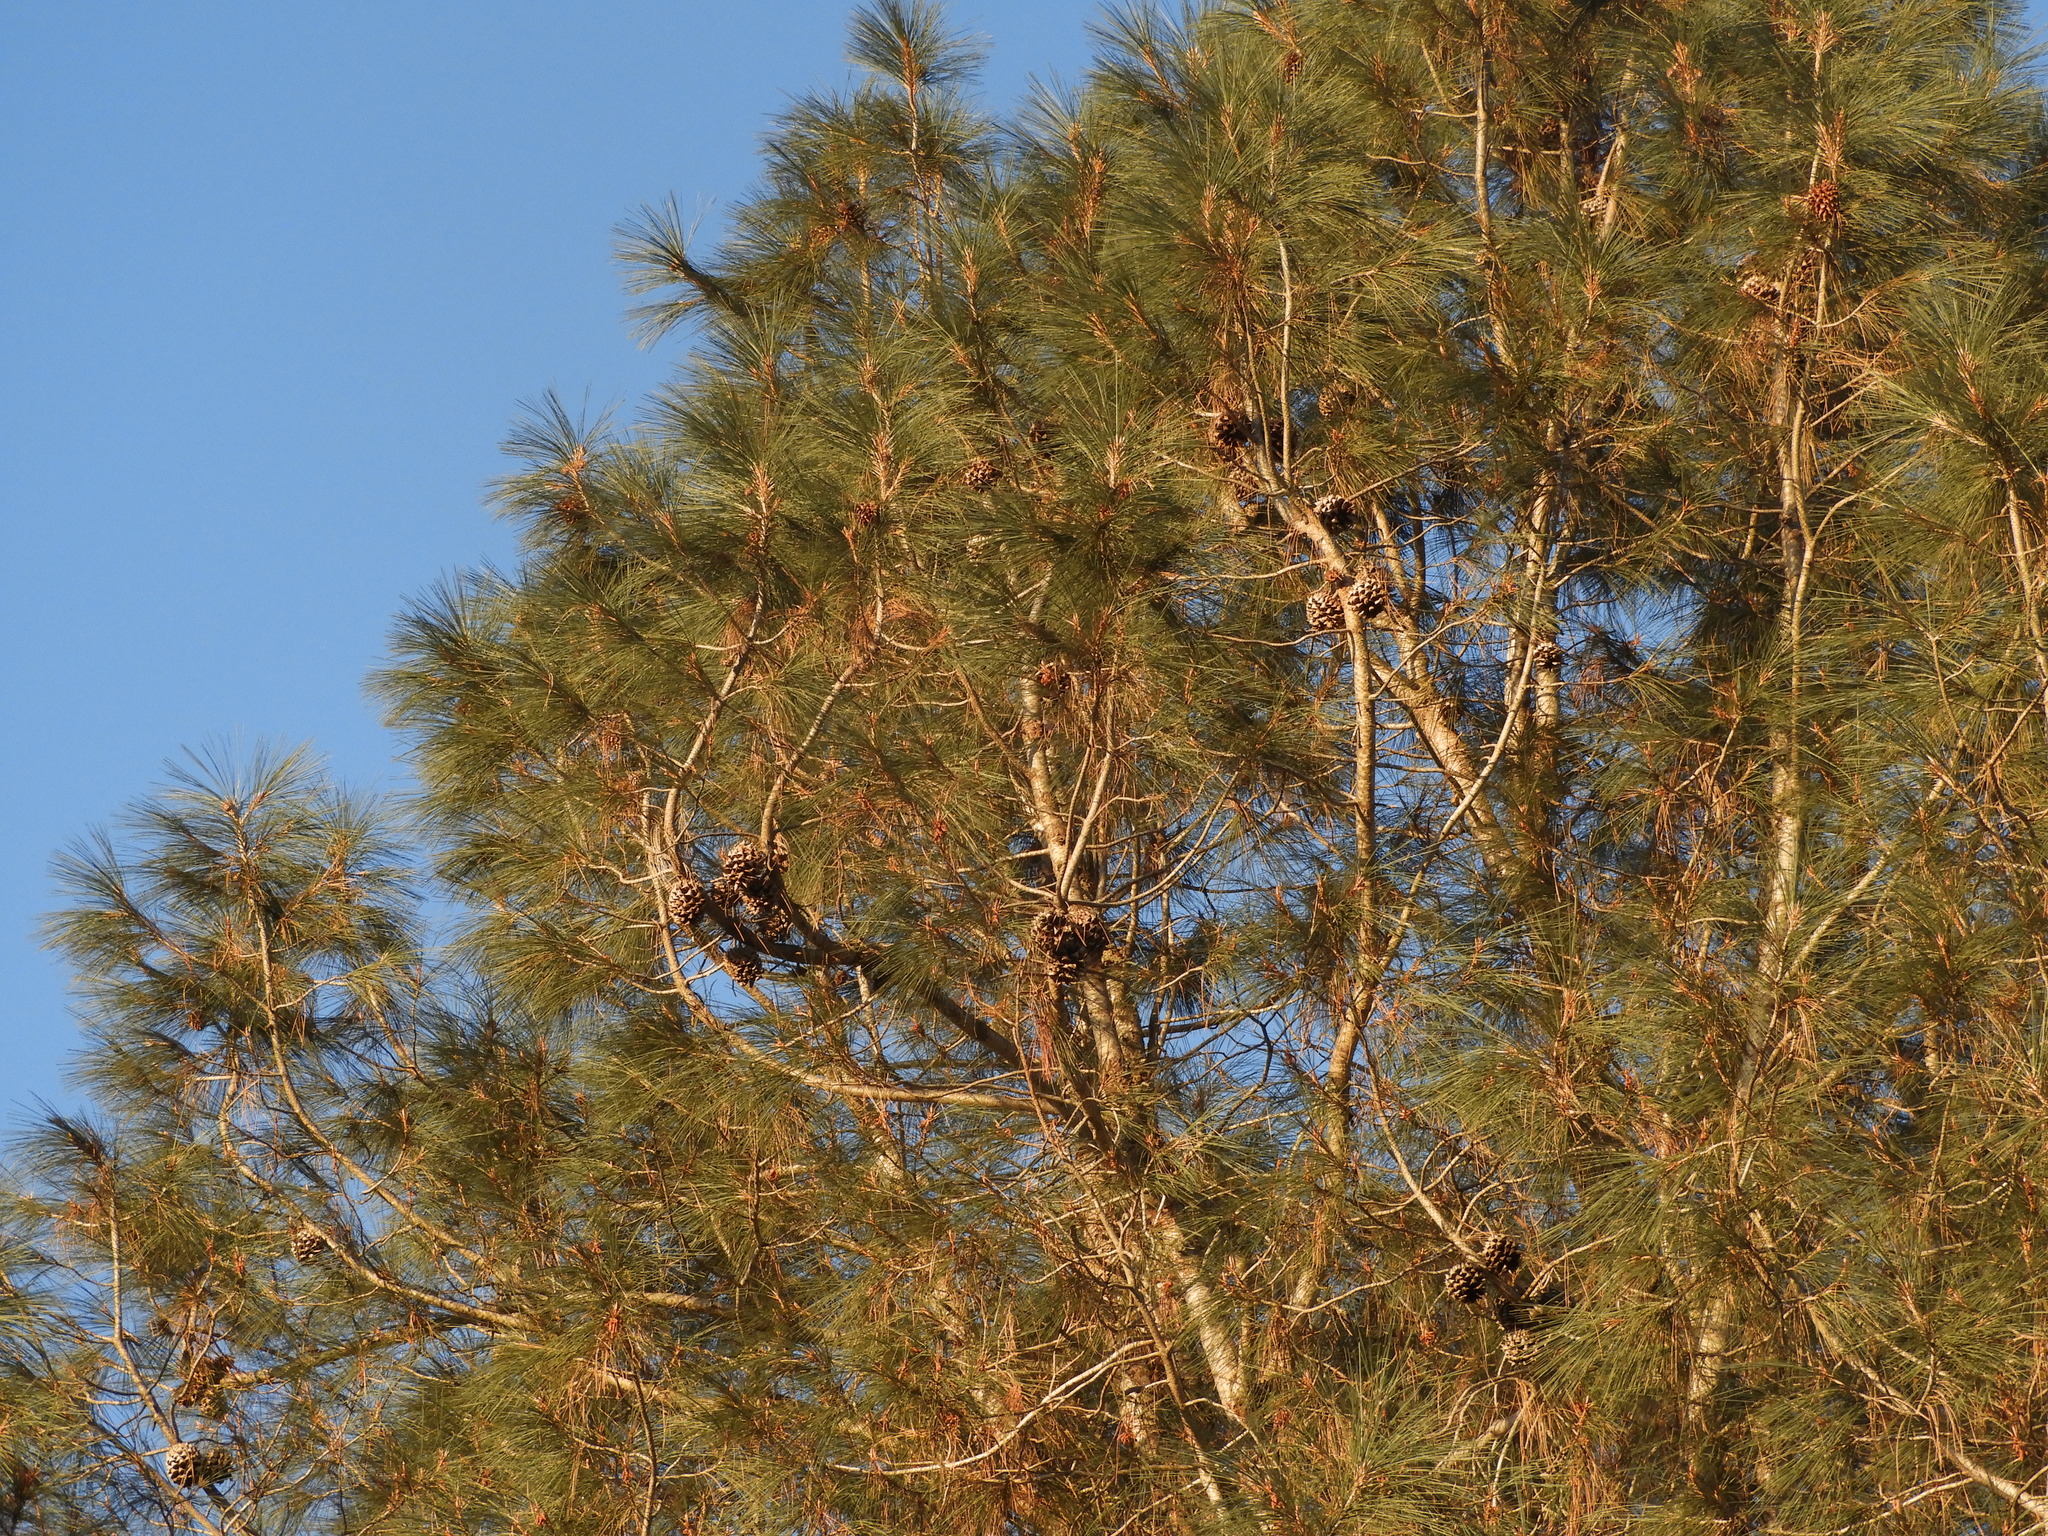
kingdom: Plantae
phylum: Tracheophyta
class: Pinopsida
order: Pinales
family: Pinaceae
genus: Pinus
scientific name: Pinus sabiniana
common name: Bull pine
